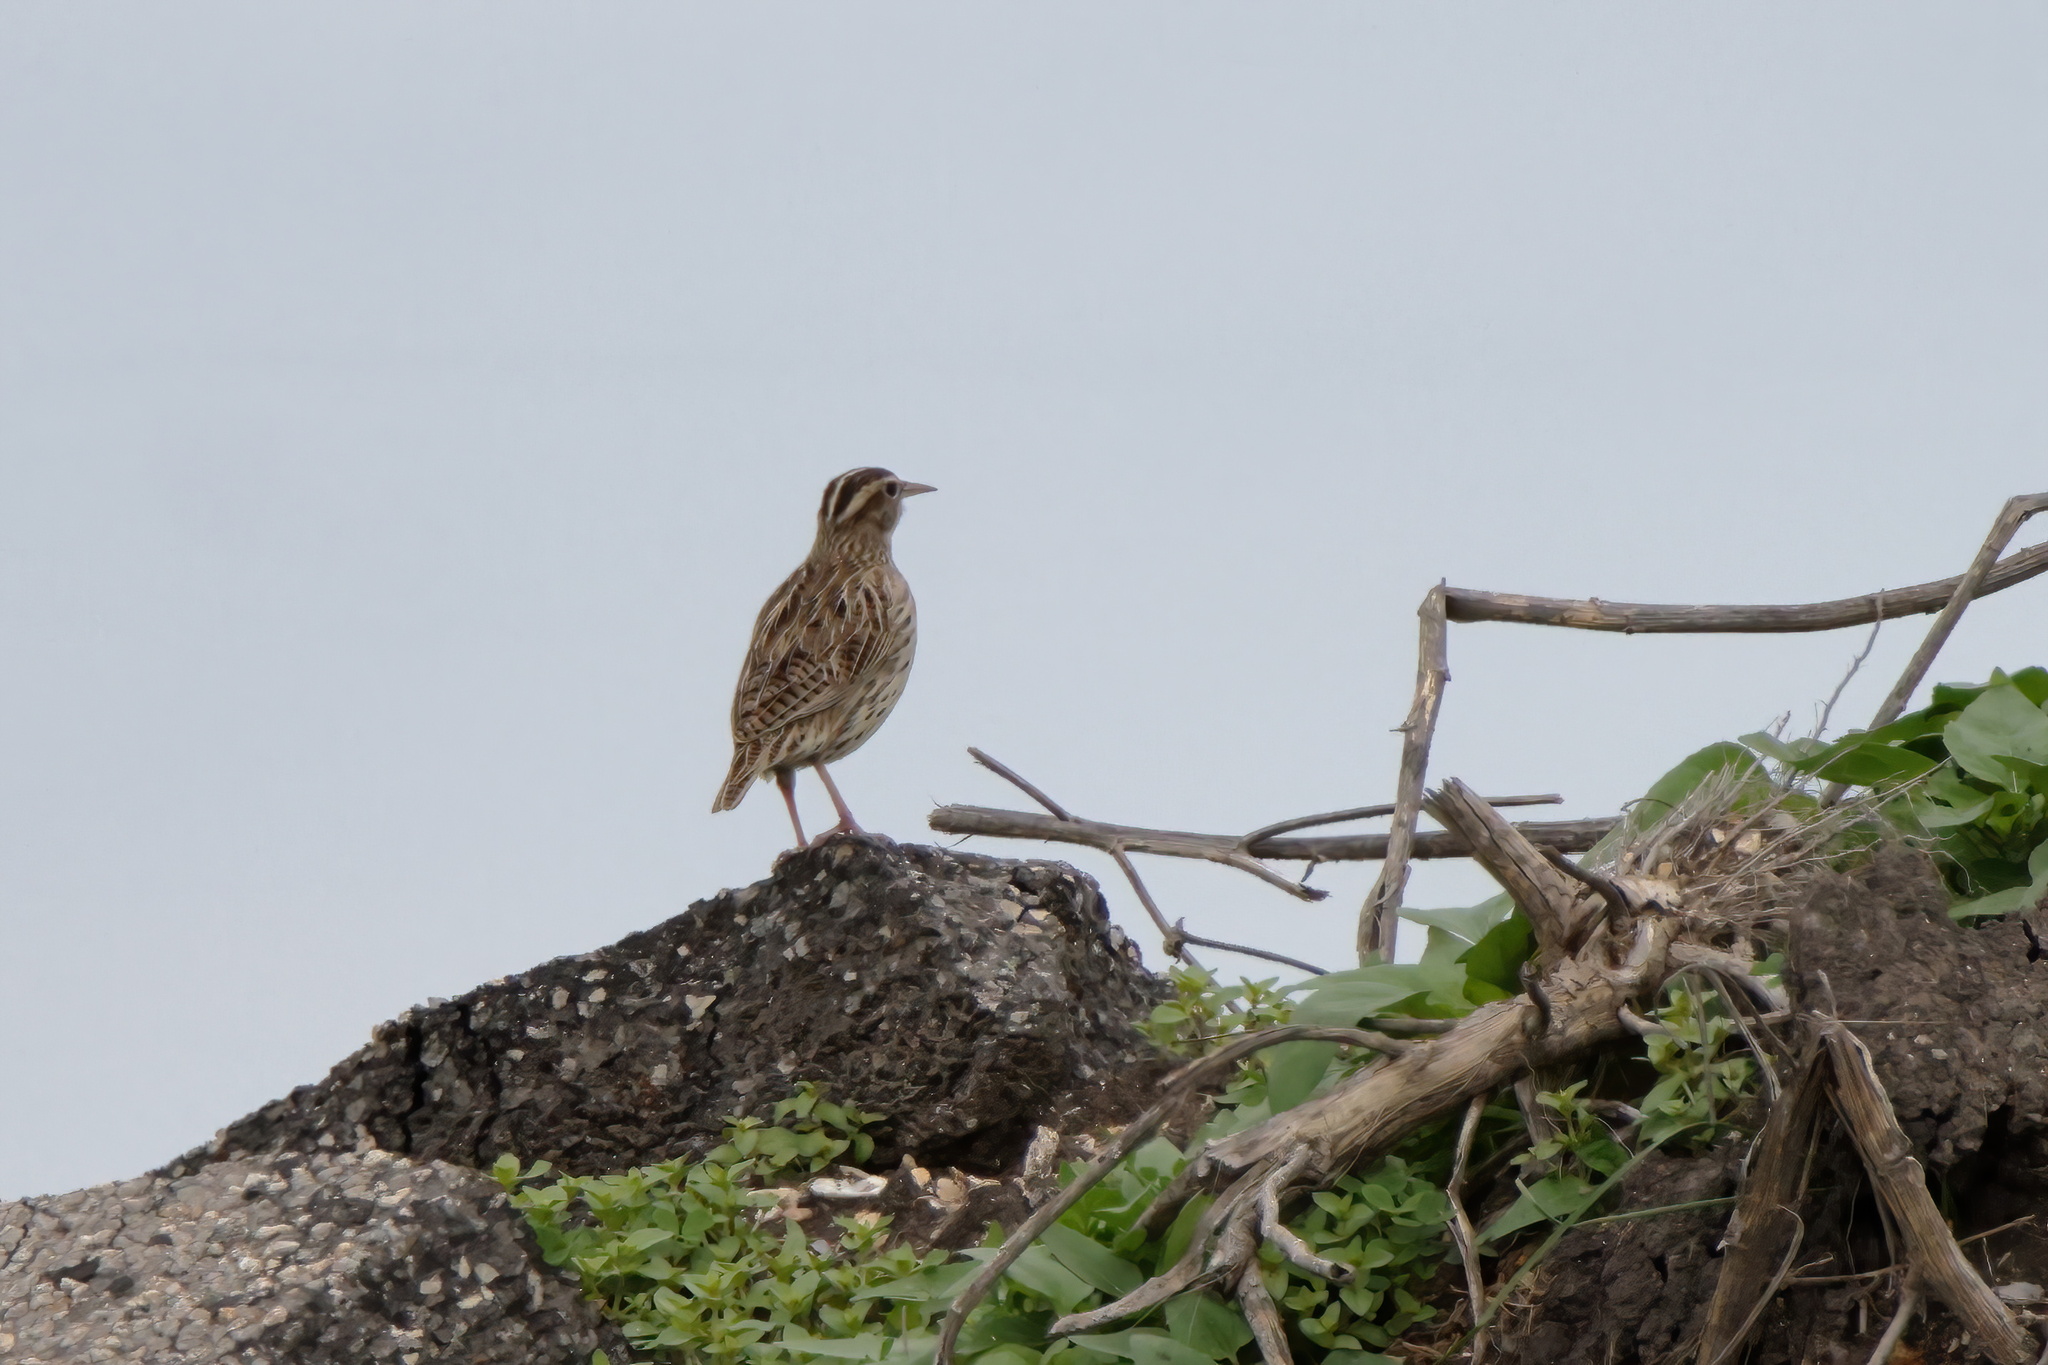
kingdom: Animalia
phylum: Chordata
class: Aves
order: Passeriformes
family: Icteridae
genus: Sturnella
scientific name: Sturnella neglecta
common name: Western meadowlark
